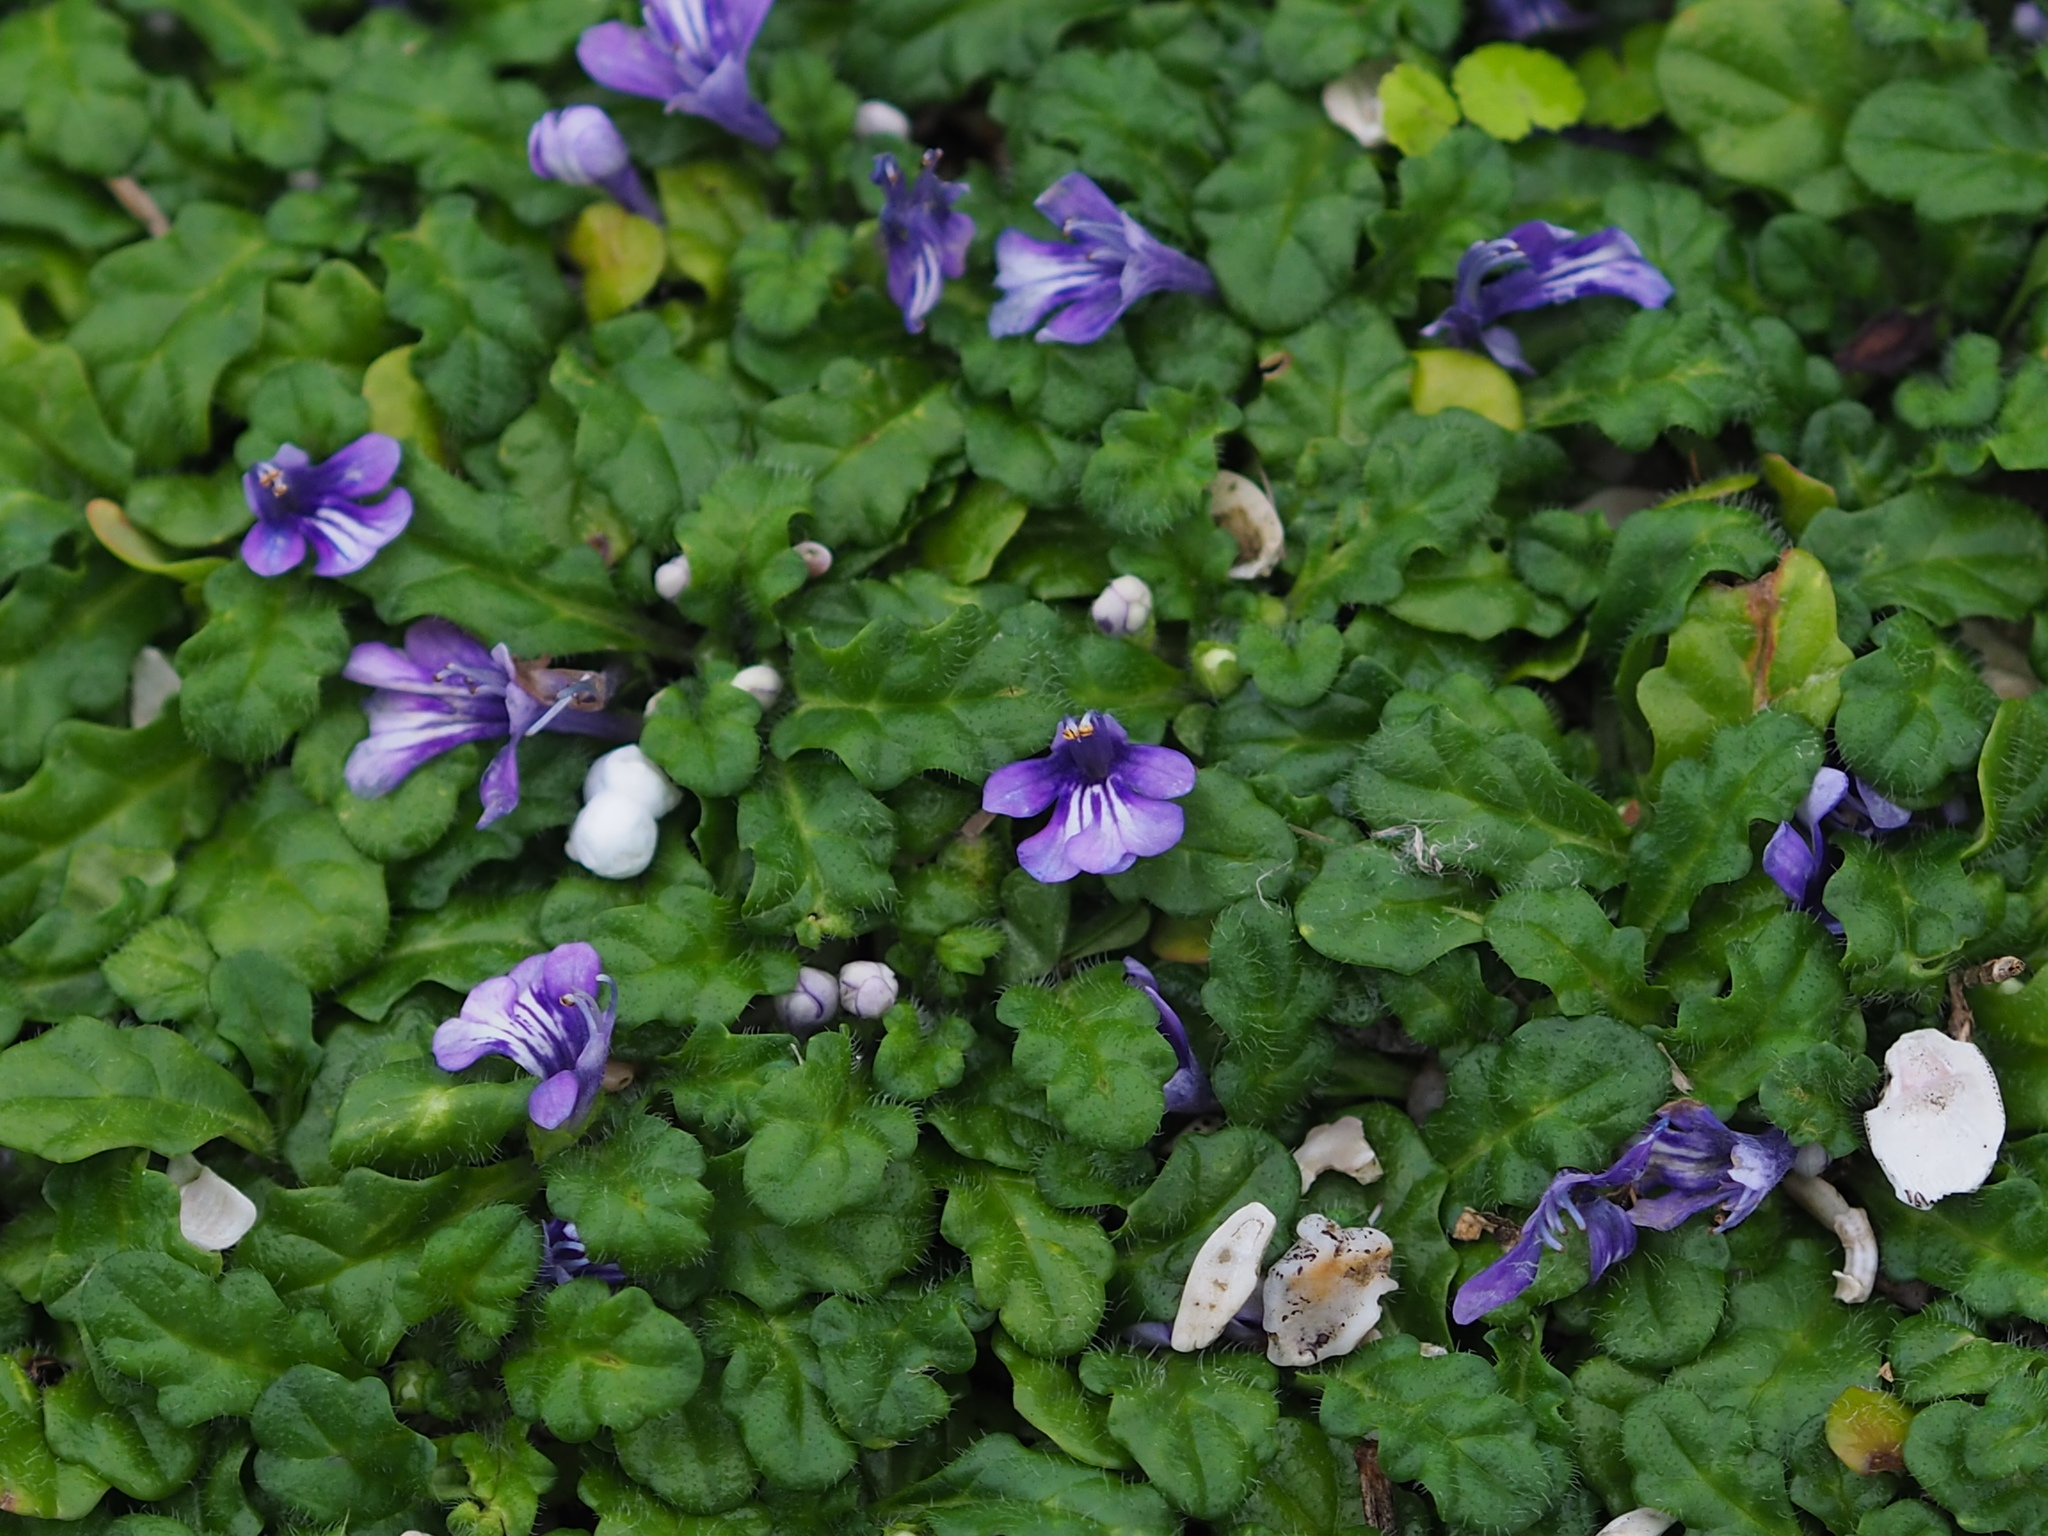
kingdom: Plantae
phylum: Tracheophyta
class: Magnoliopsida
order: Lamiales
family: Lamiaceae
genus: Ajuga
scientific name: Ajuga pygmaea
